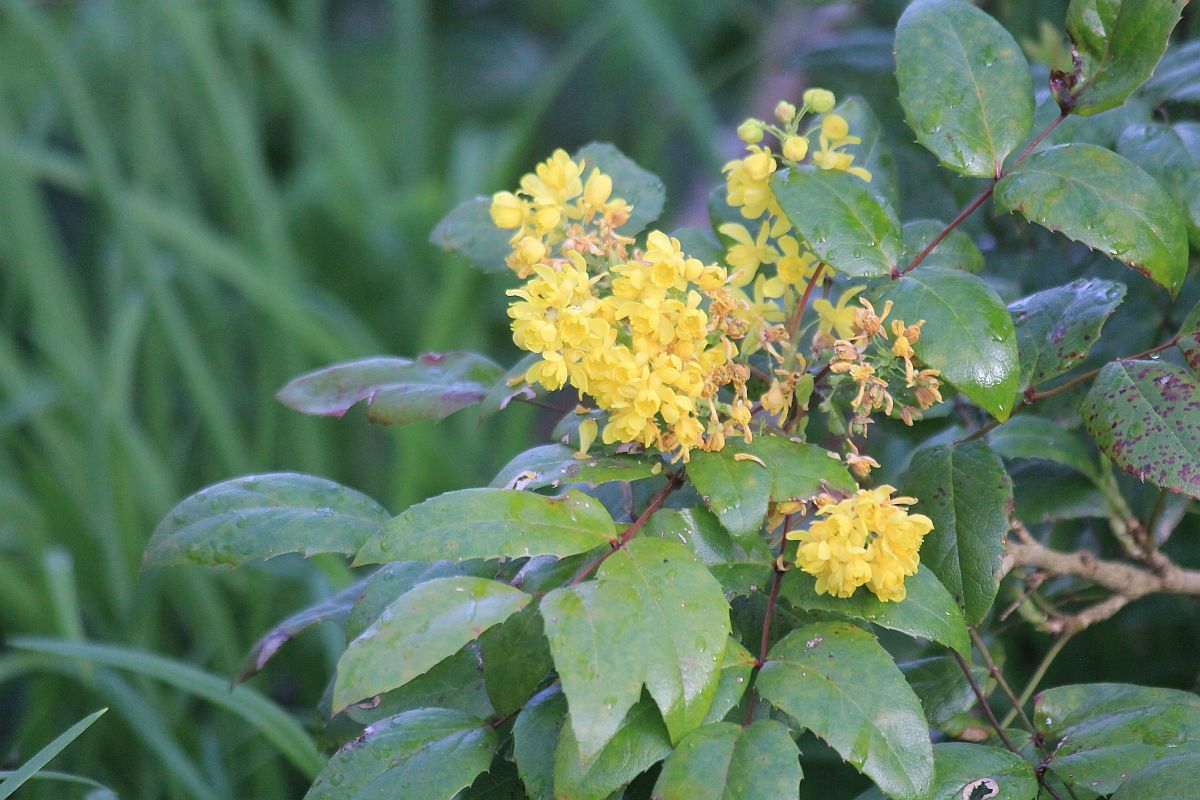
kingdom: Plantae
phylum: Tracheophyta
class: Magnoliopsida
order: Ranunculales
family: Berberidaceae
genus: Mahonia
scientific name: Mahonia aquifolium
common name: Oregon-grape
